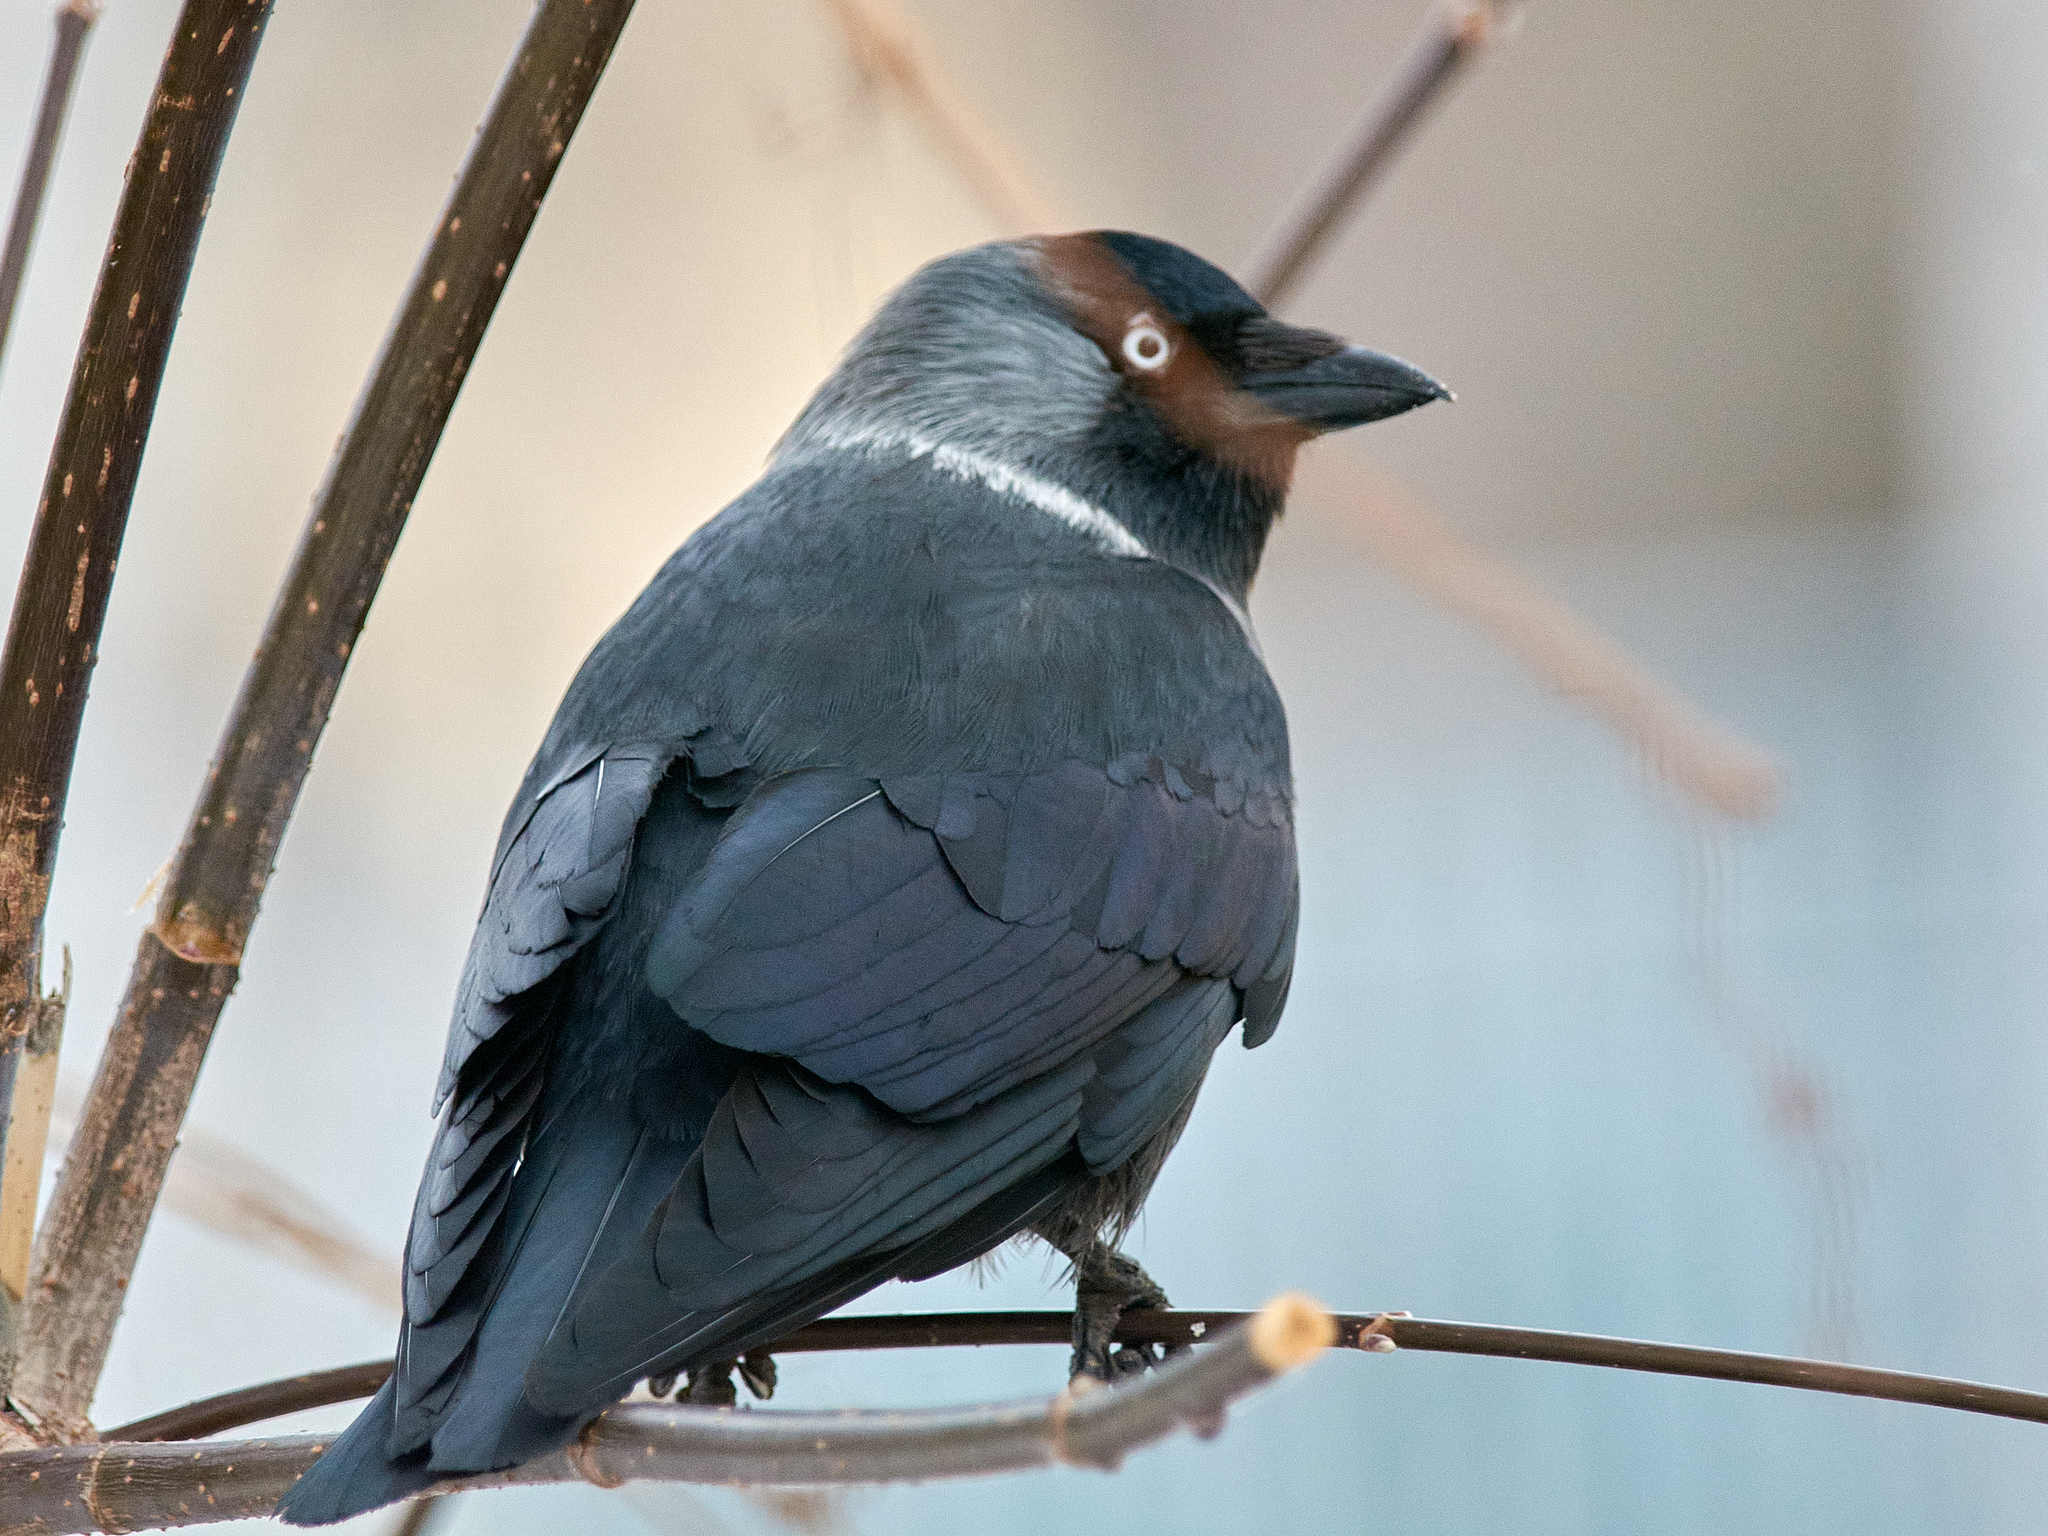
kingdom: Animalia
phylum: Chordata
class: Aves
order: Passeriformes
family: Corvidae
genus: Coloeus
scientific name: Coloeus monedula
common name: Western jackdaw
